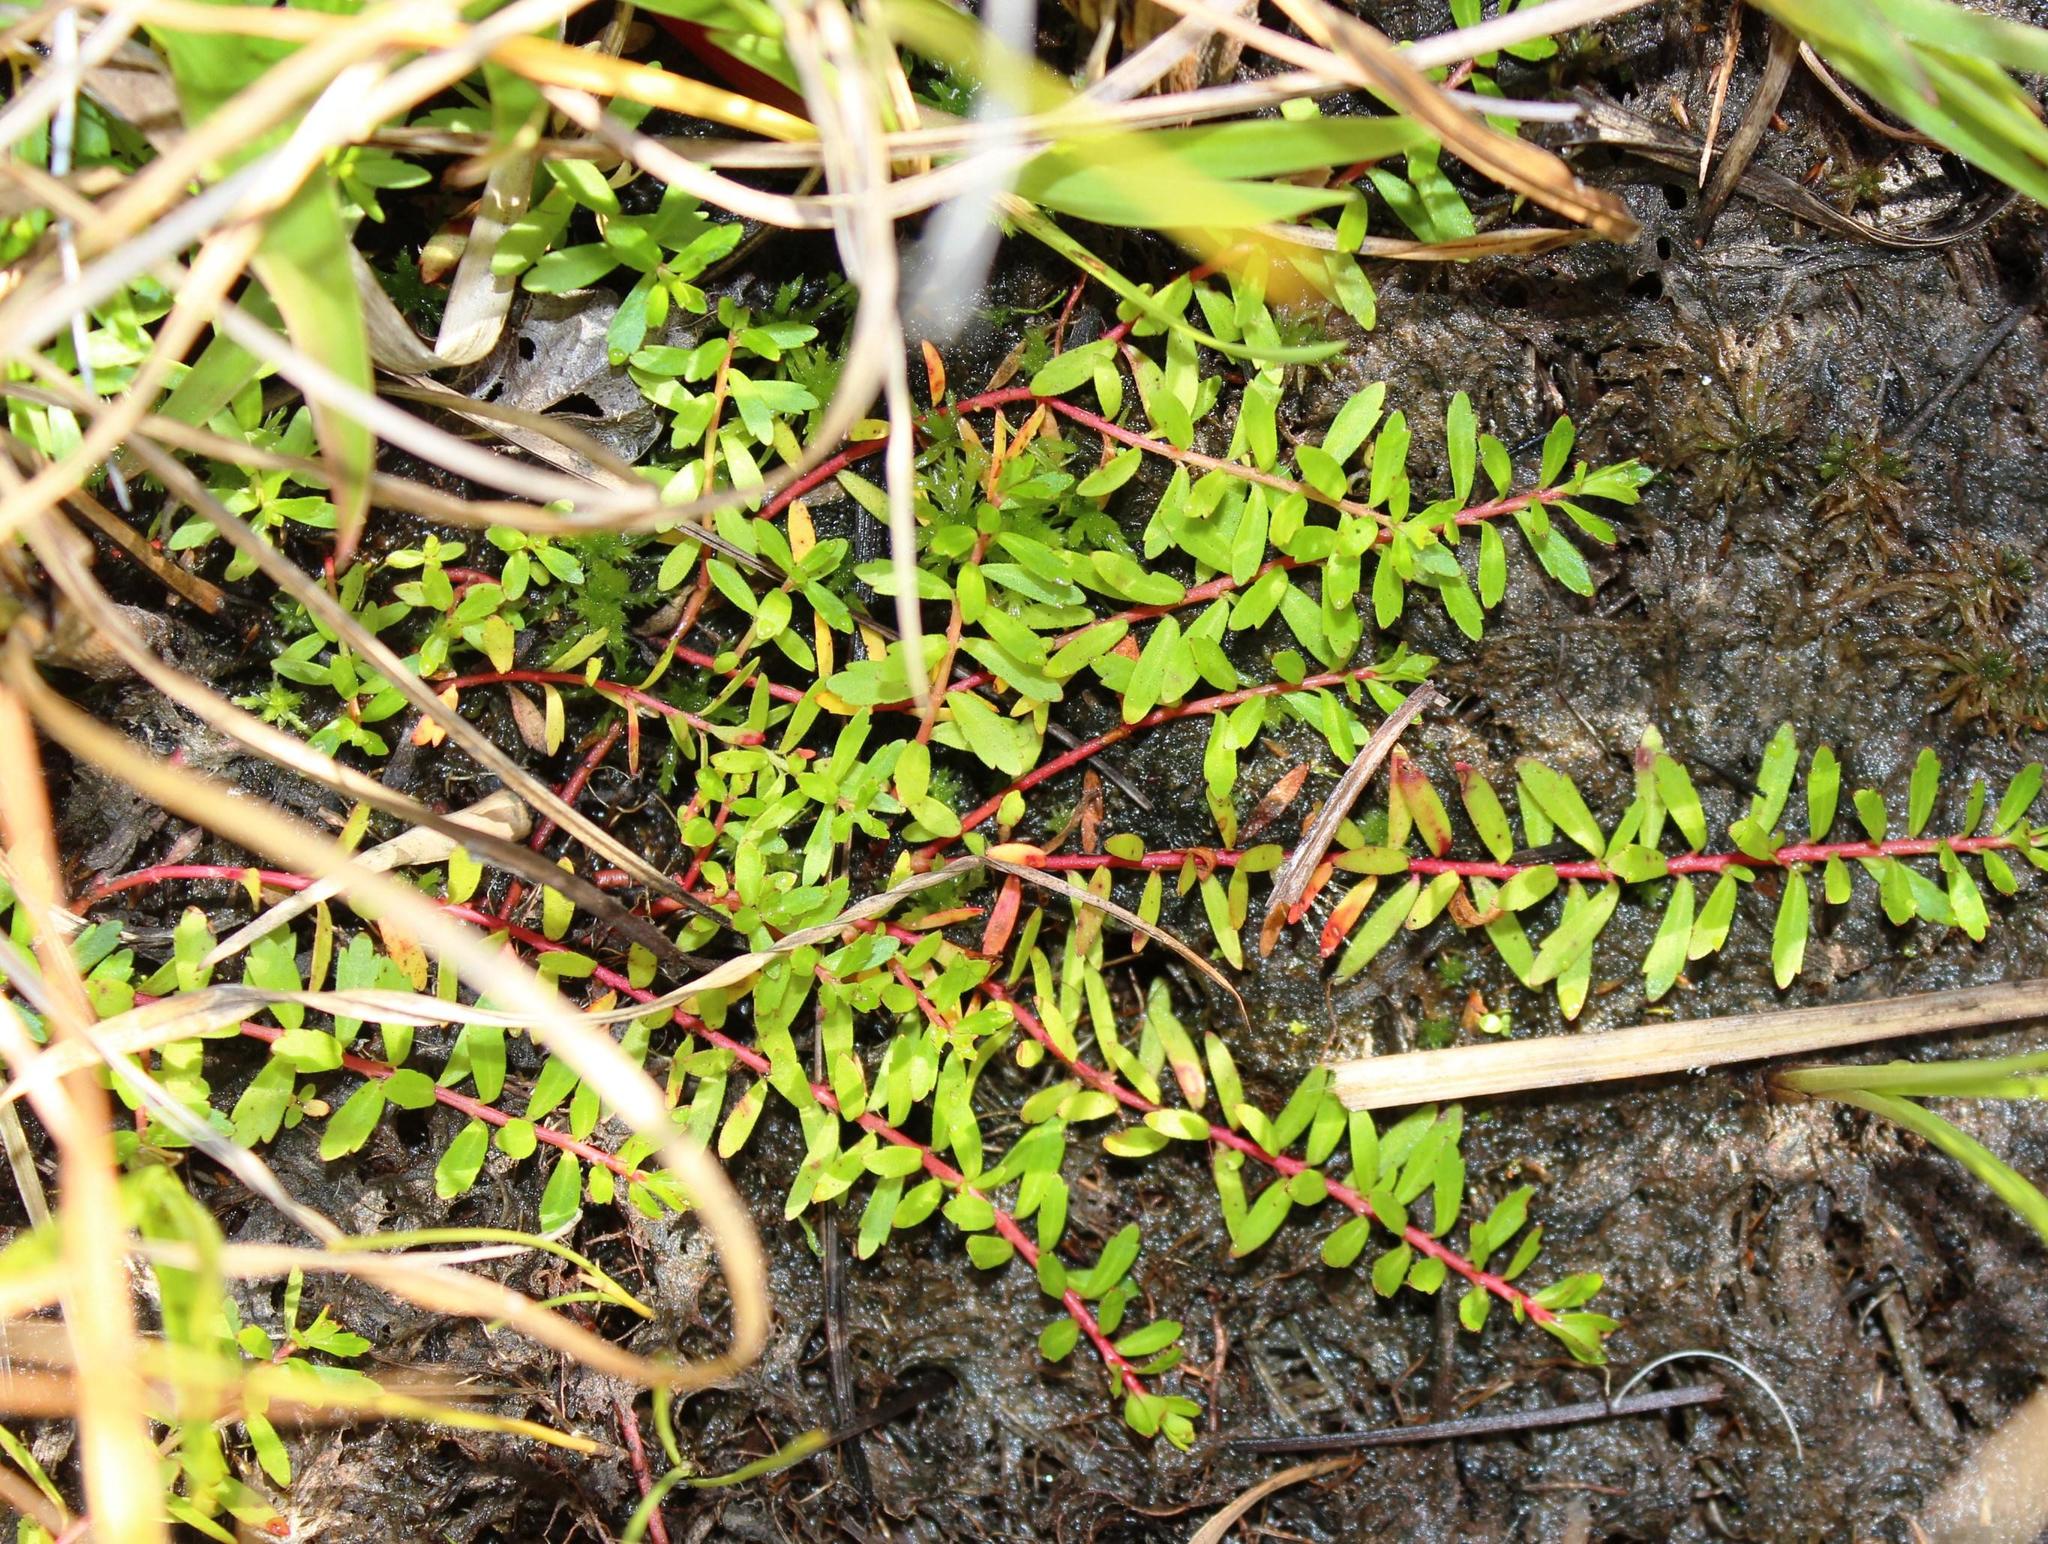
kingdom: Plantae
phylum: Tracheophyta
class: Magnoliopsida
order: Saxifragales
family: Haloragaceae
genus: Laurembergia
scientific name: Laurembergia repens
